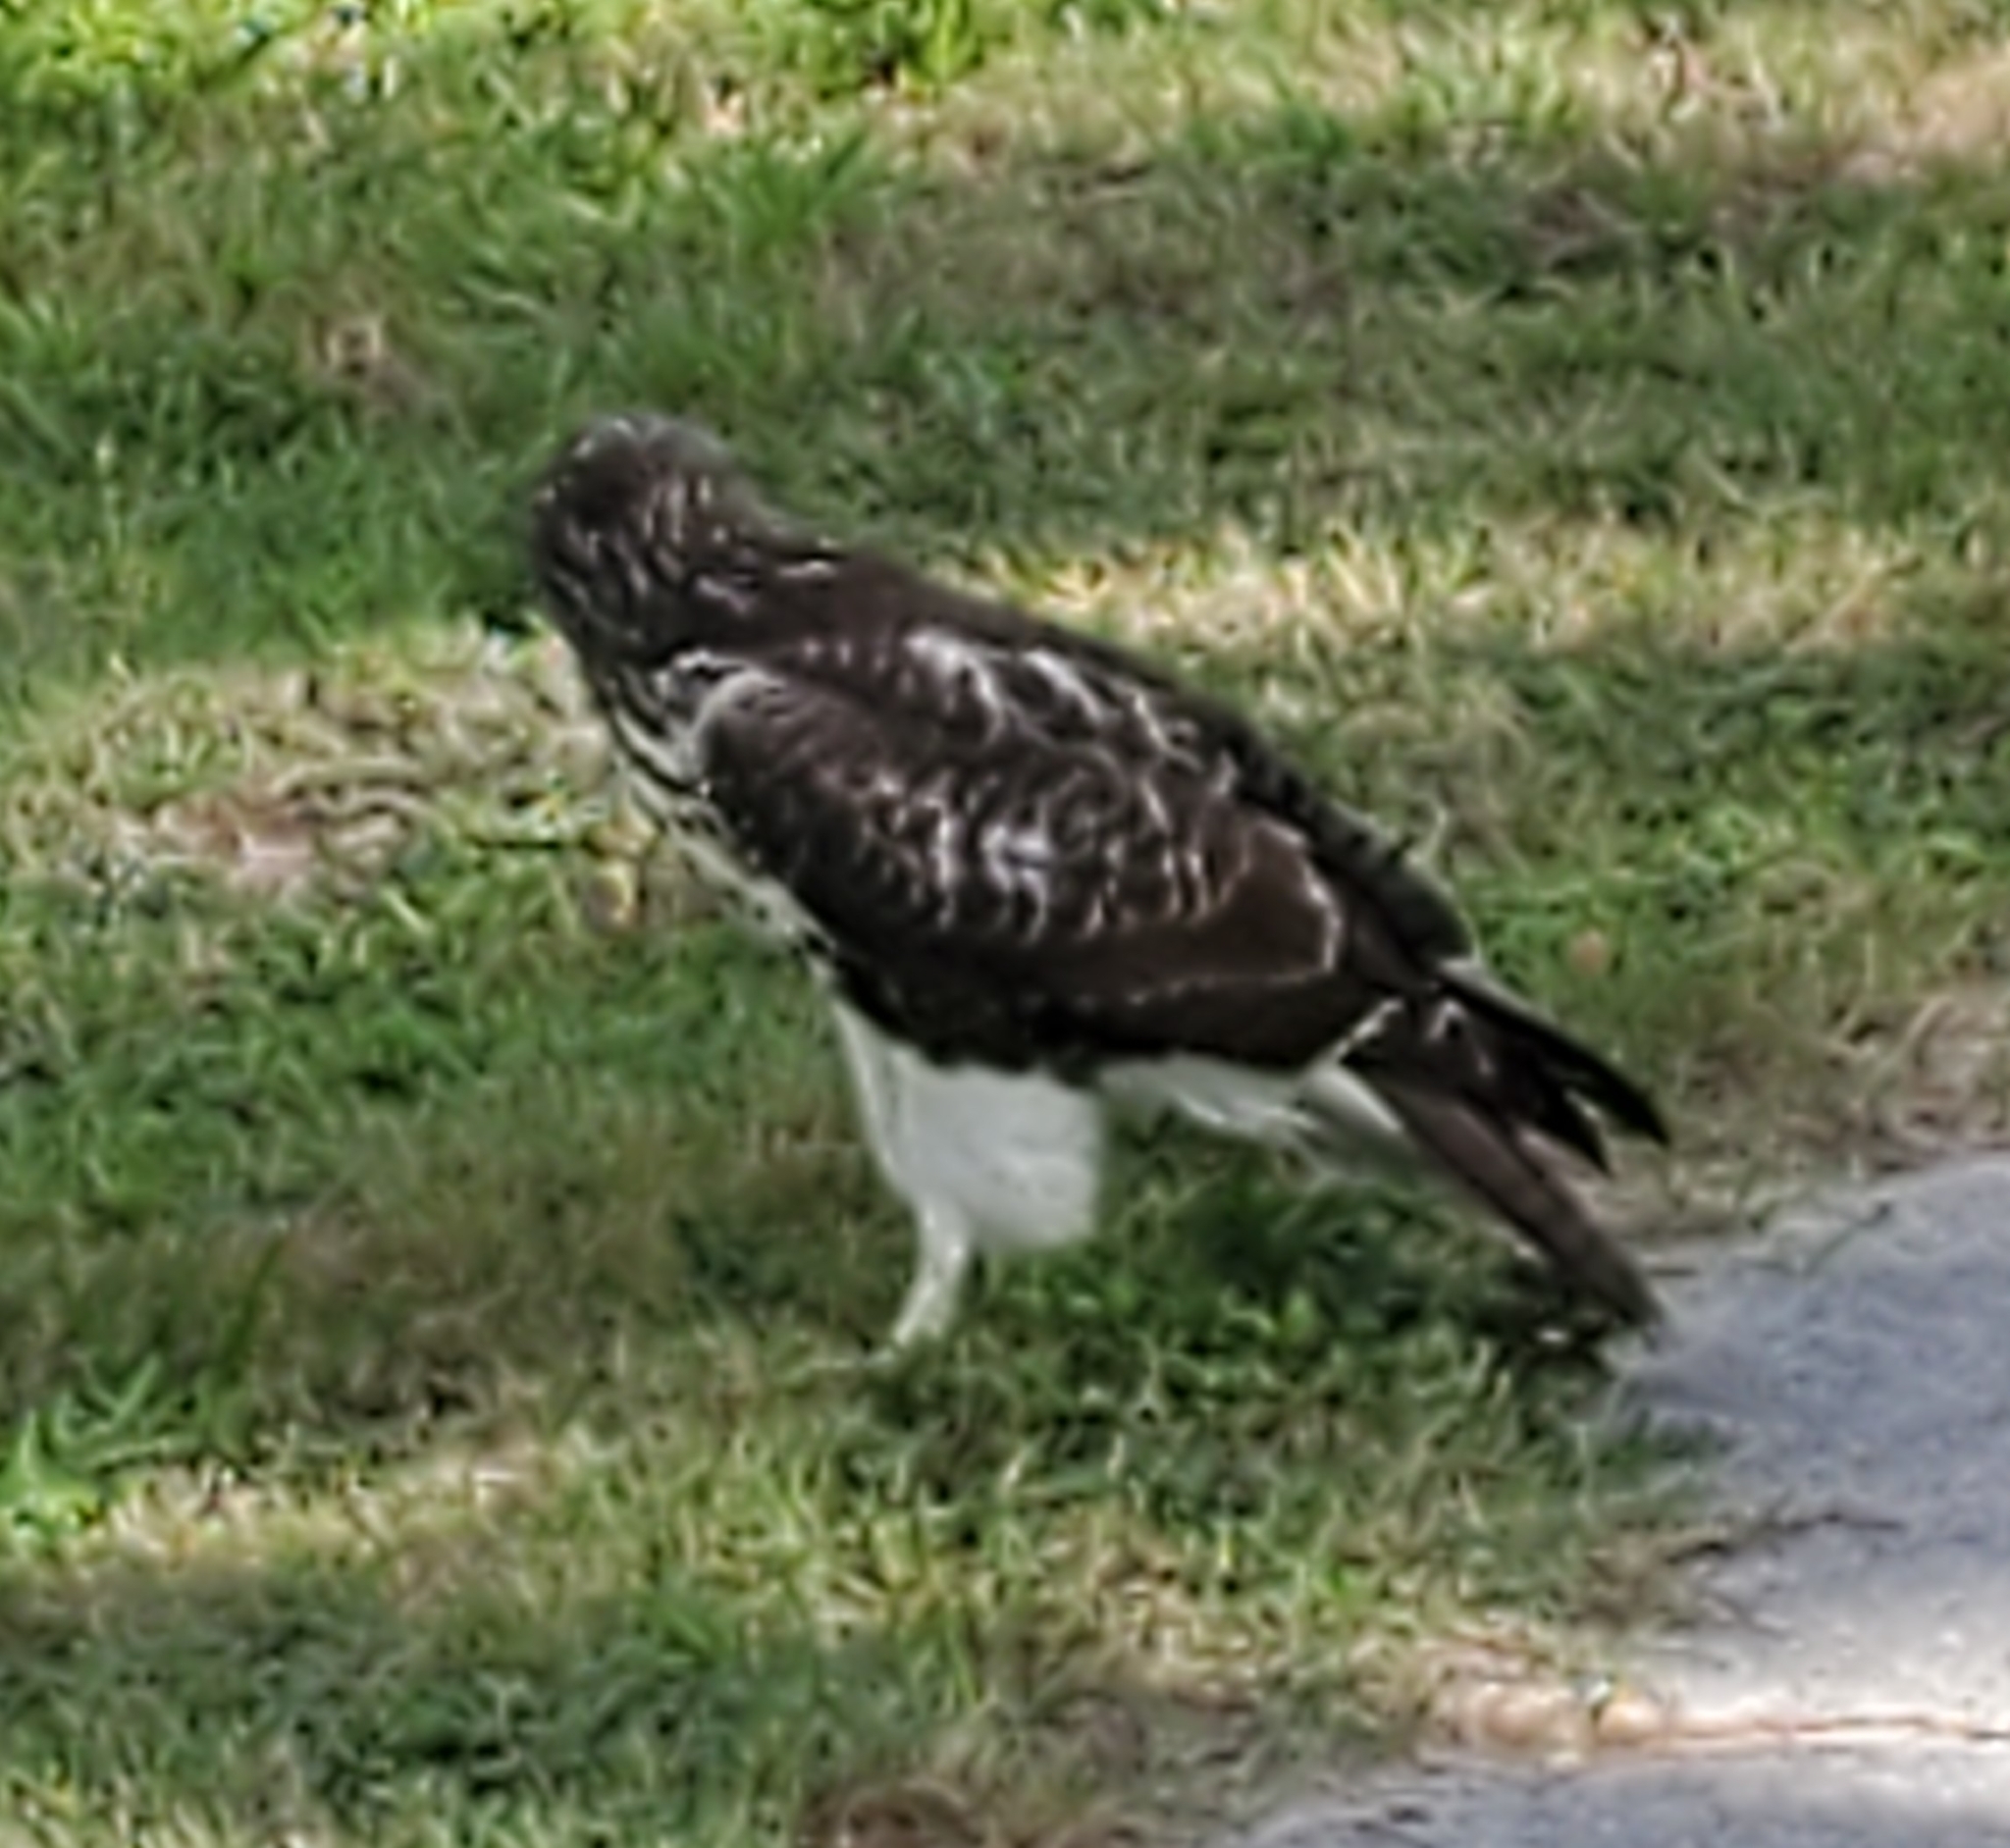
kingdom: Animalia
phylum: Chordata
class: Aves
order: Accipitriformes
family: Accipitridae
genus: Buteo
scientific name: Buteo jamaicensis
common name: Red-tailed hawk
